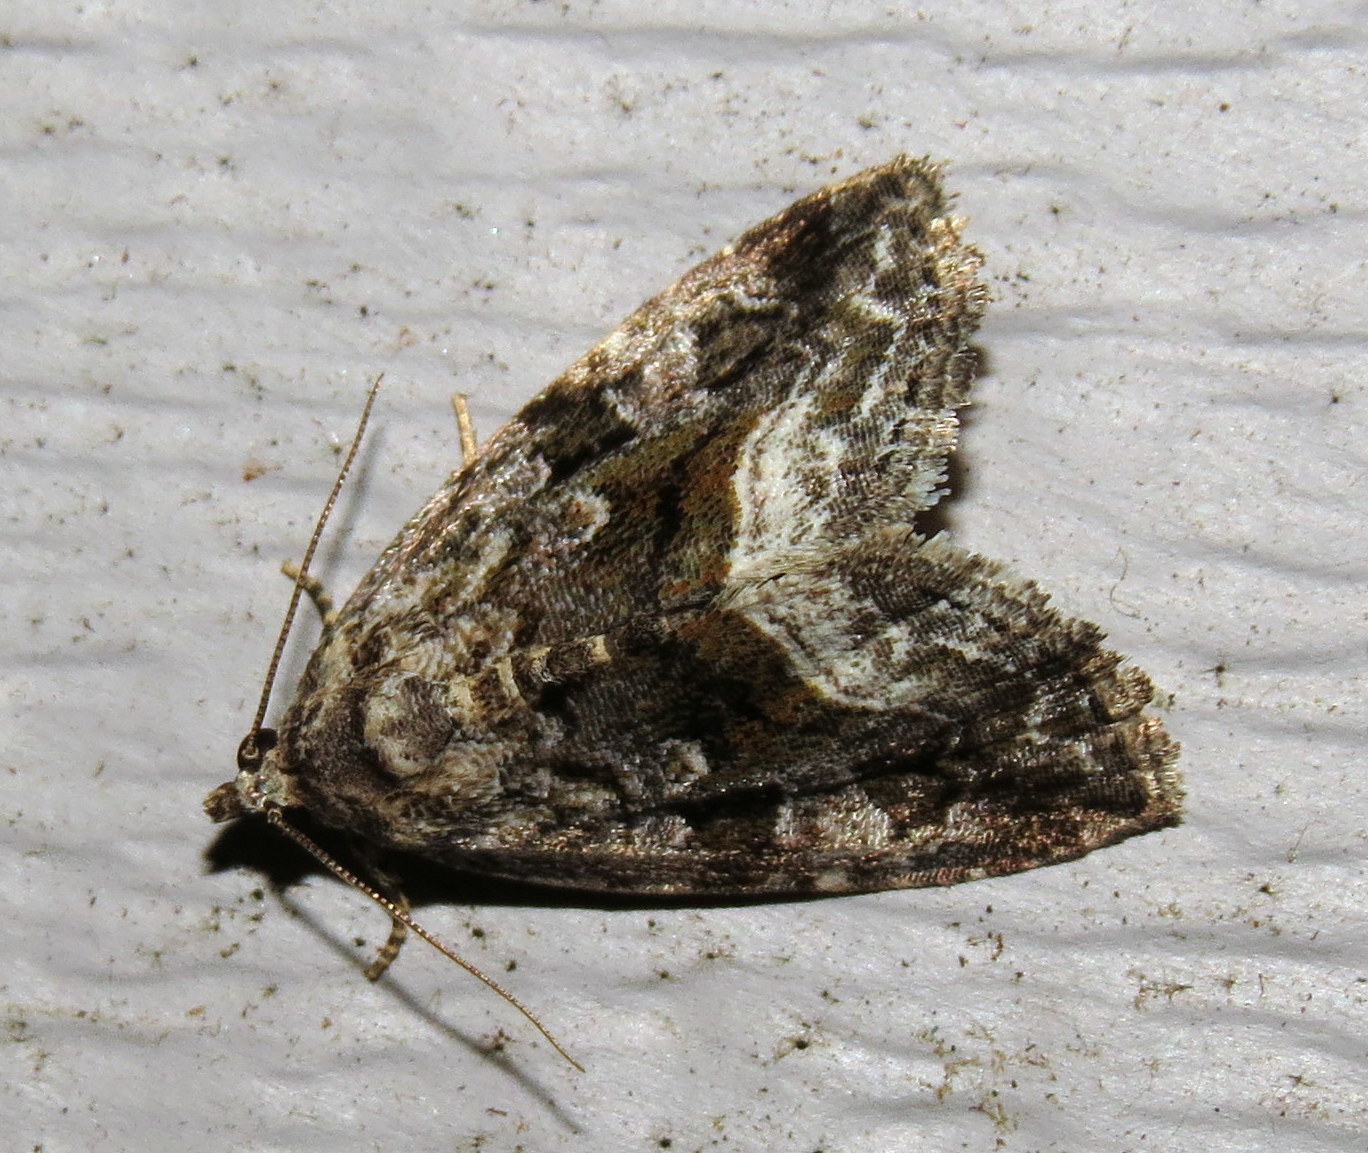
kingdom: Animalia
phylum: Arthropoda
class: Insecta
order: Lepidoptera
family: Noctuidae
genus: Protodeltote
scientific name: Protodeltote muscosula
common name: Large mossy glyph
